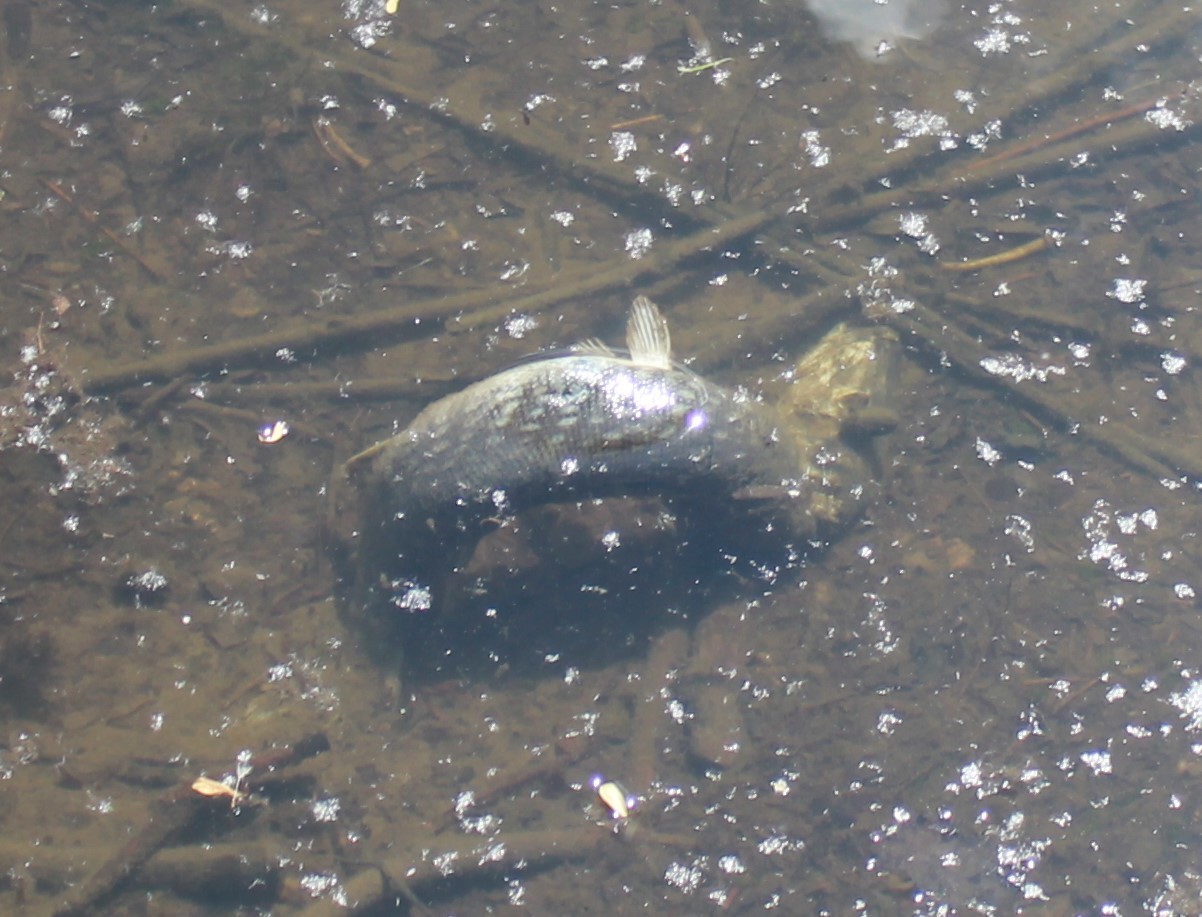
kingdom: Animalia
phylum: Chordata
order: Esociformes
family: Esocidae
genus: Esox
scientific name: Esox lucius
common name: Northern pike
